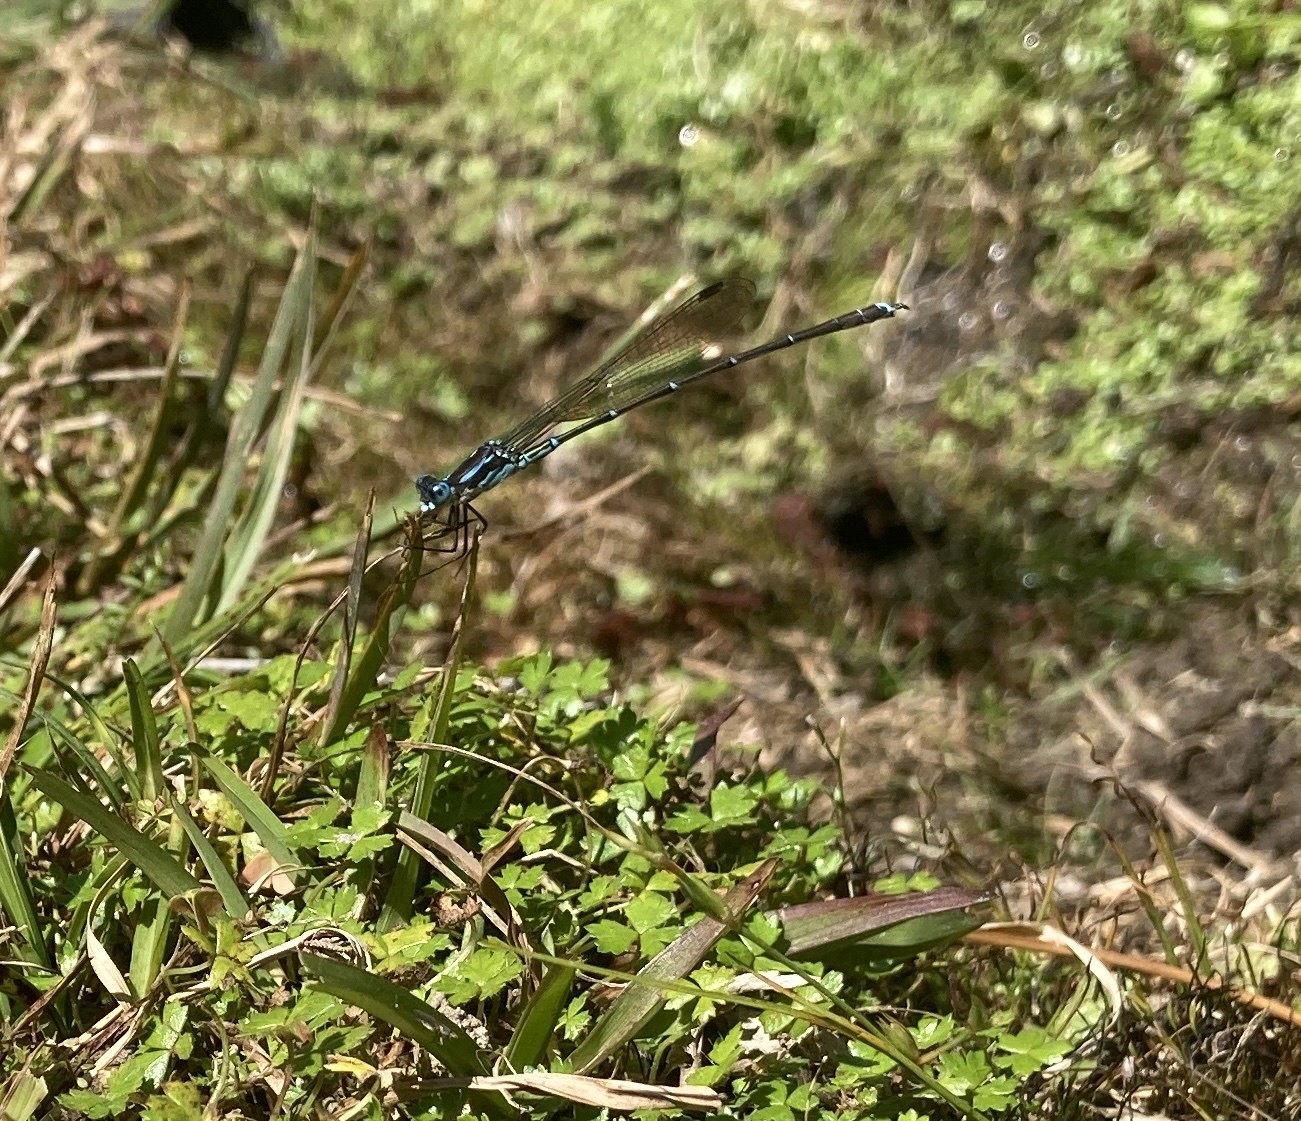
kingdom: Animalia
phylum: Arthropoda
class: Insecta
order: Odonata
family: Lestidae
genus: Austrolestes
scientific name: Austrolestes colensonis
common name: Blue damselfly
